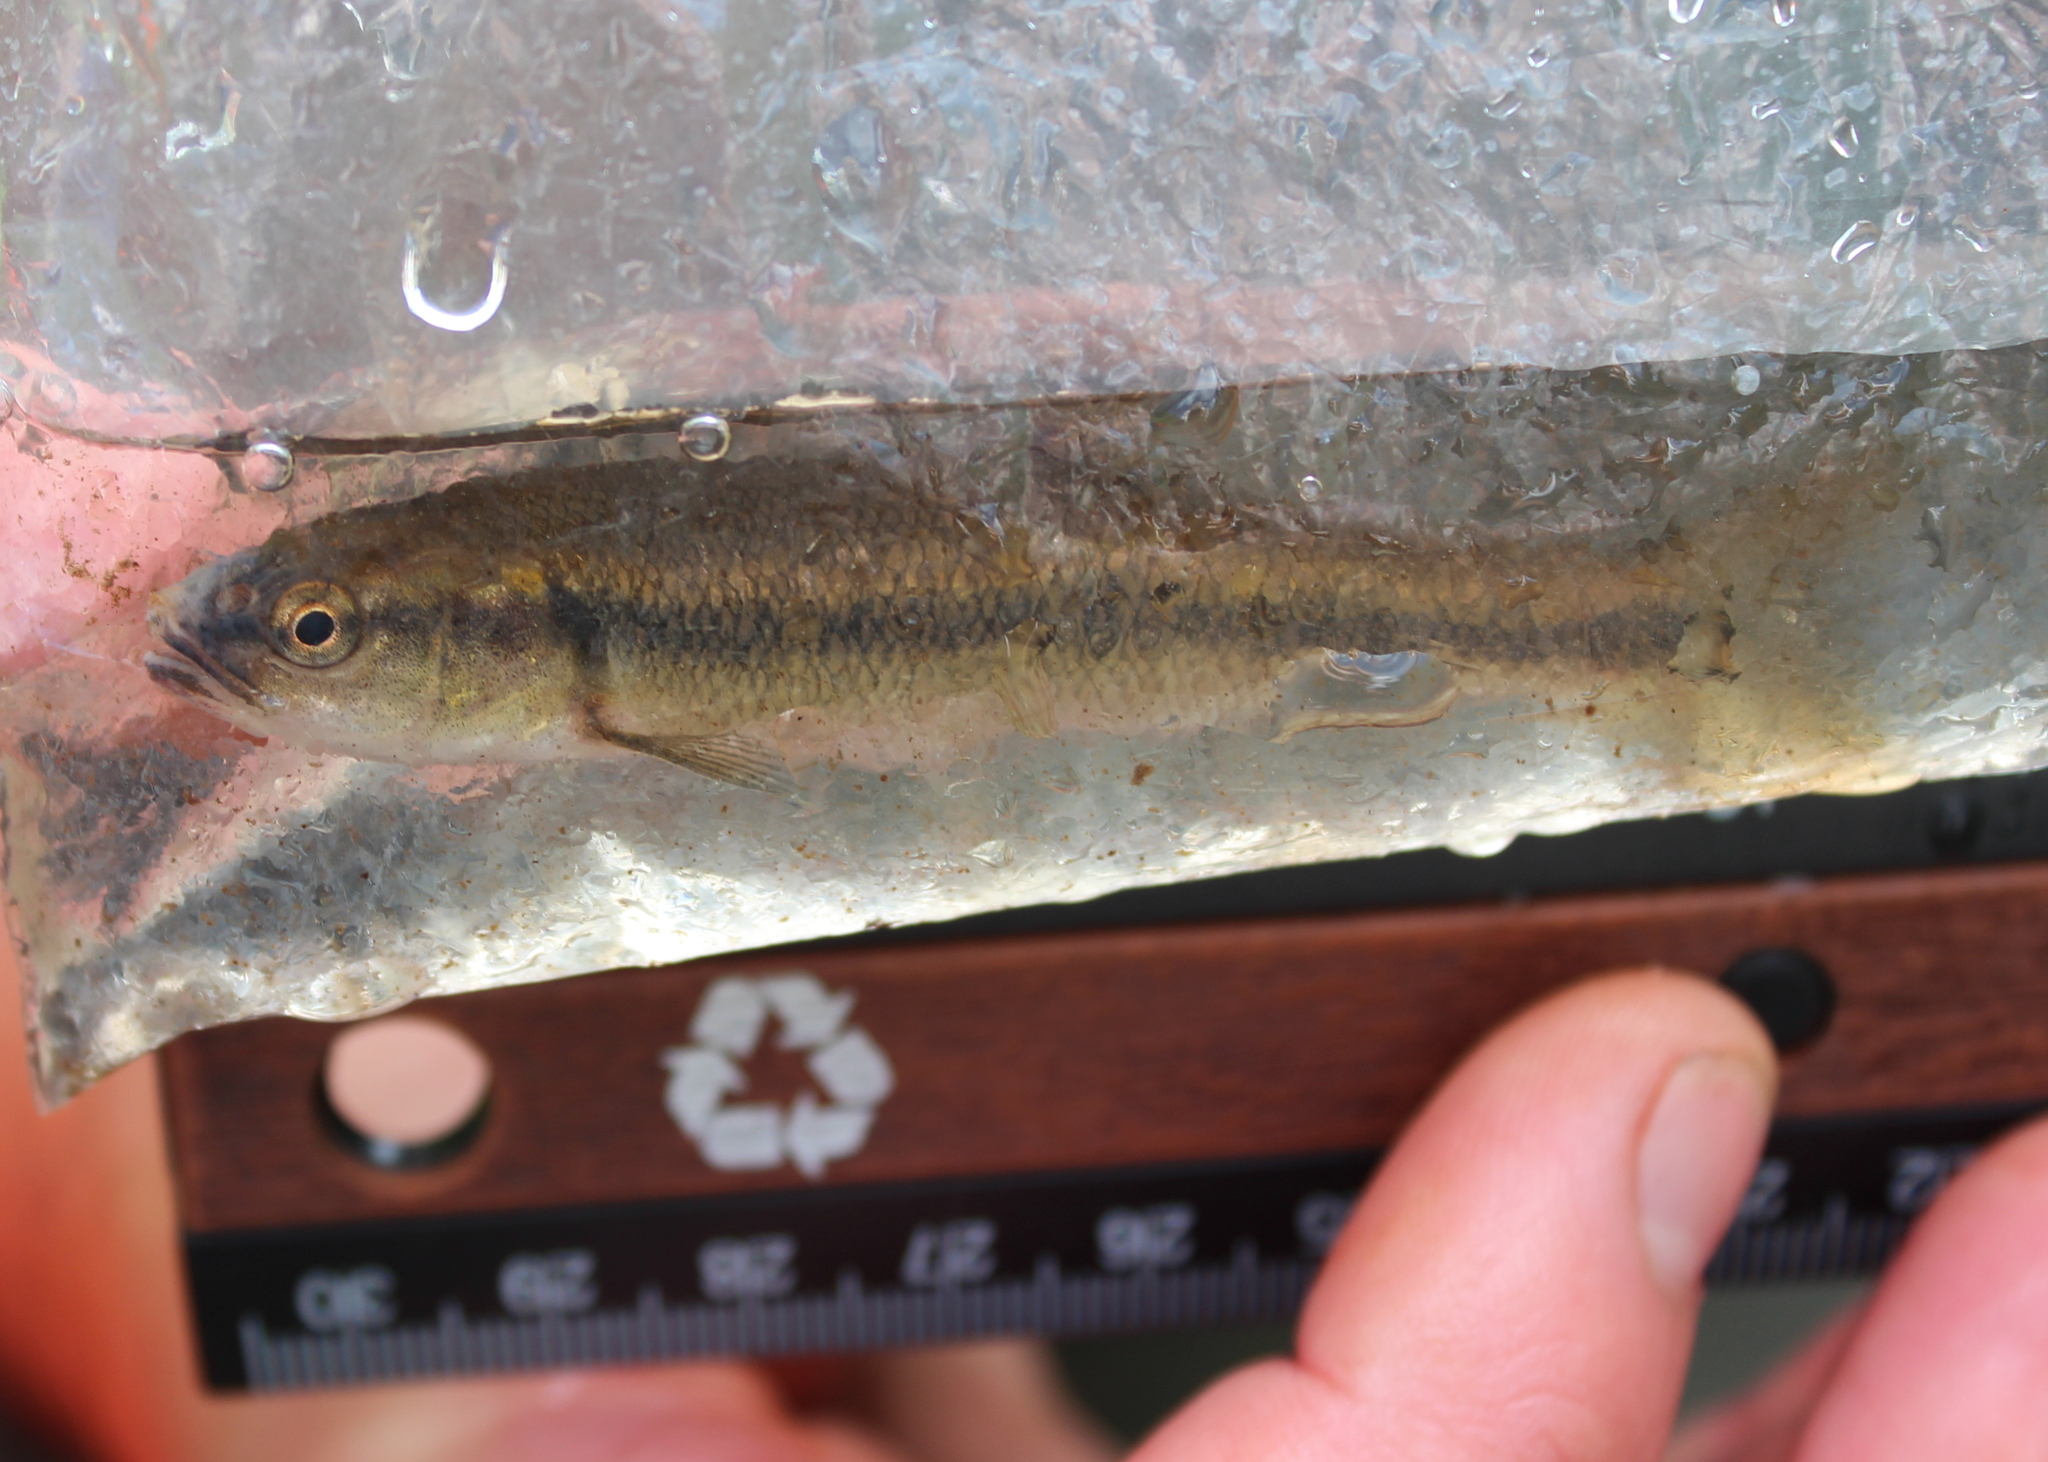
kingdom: Animalia
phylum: Chordata
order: Cypriniformes
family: Cyprinidae
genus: Semotilus
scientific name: Semotilus atromaculatus
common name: Creek chub
